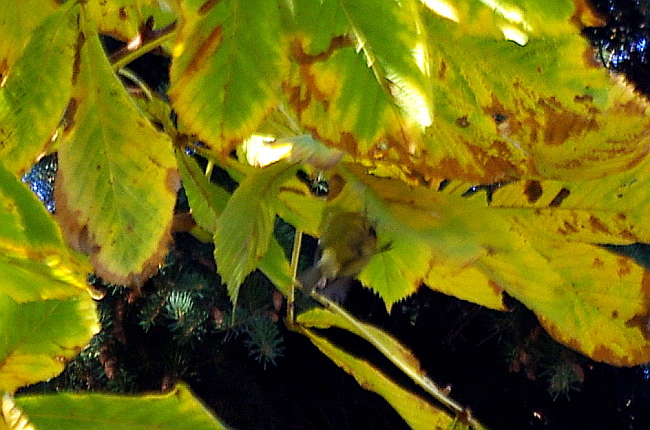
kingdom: Animalia
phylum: Chordata
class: Aves
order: Passeriformes
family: Paridae
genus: Cyanistes
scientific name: Cyanistes caeruleus
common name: Eurasian blue tit
